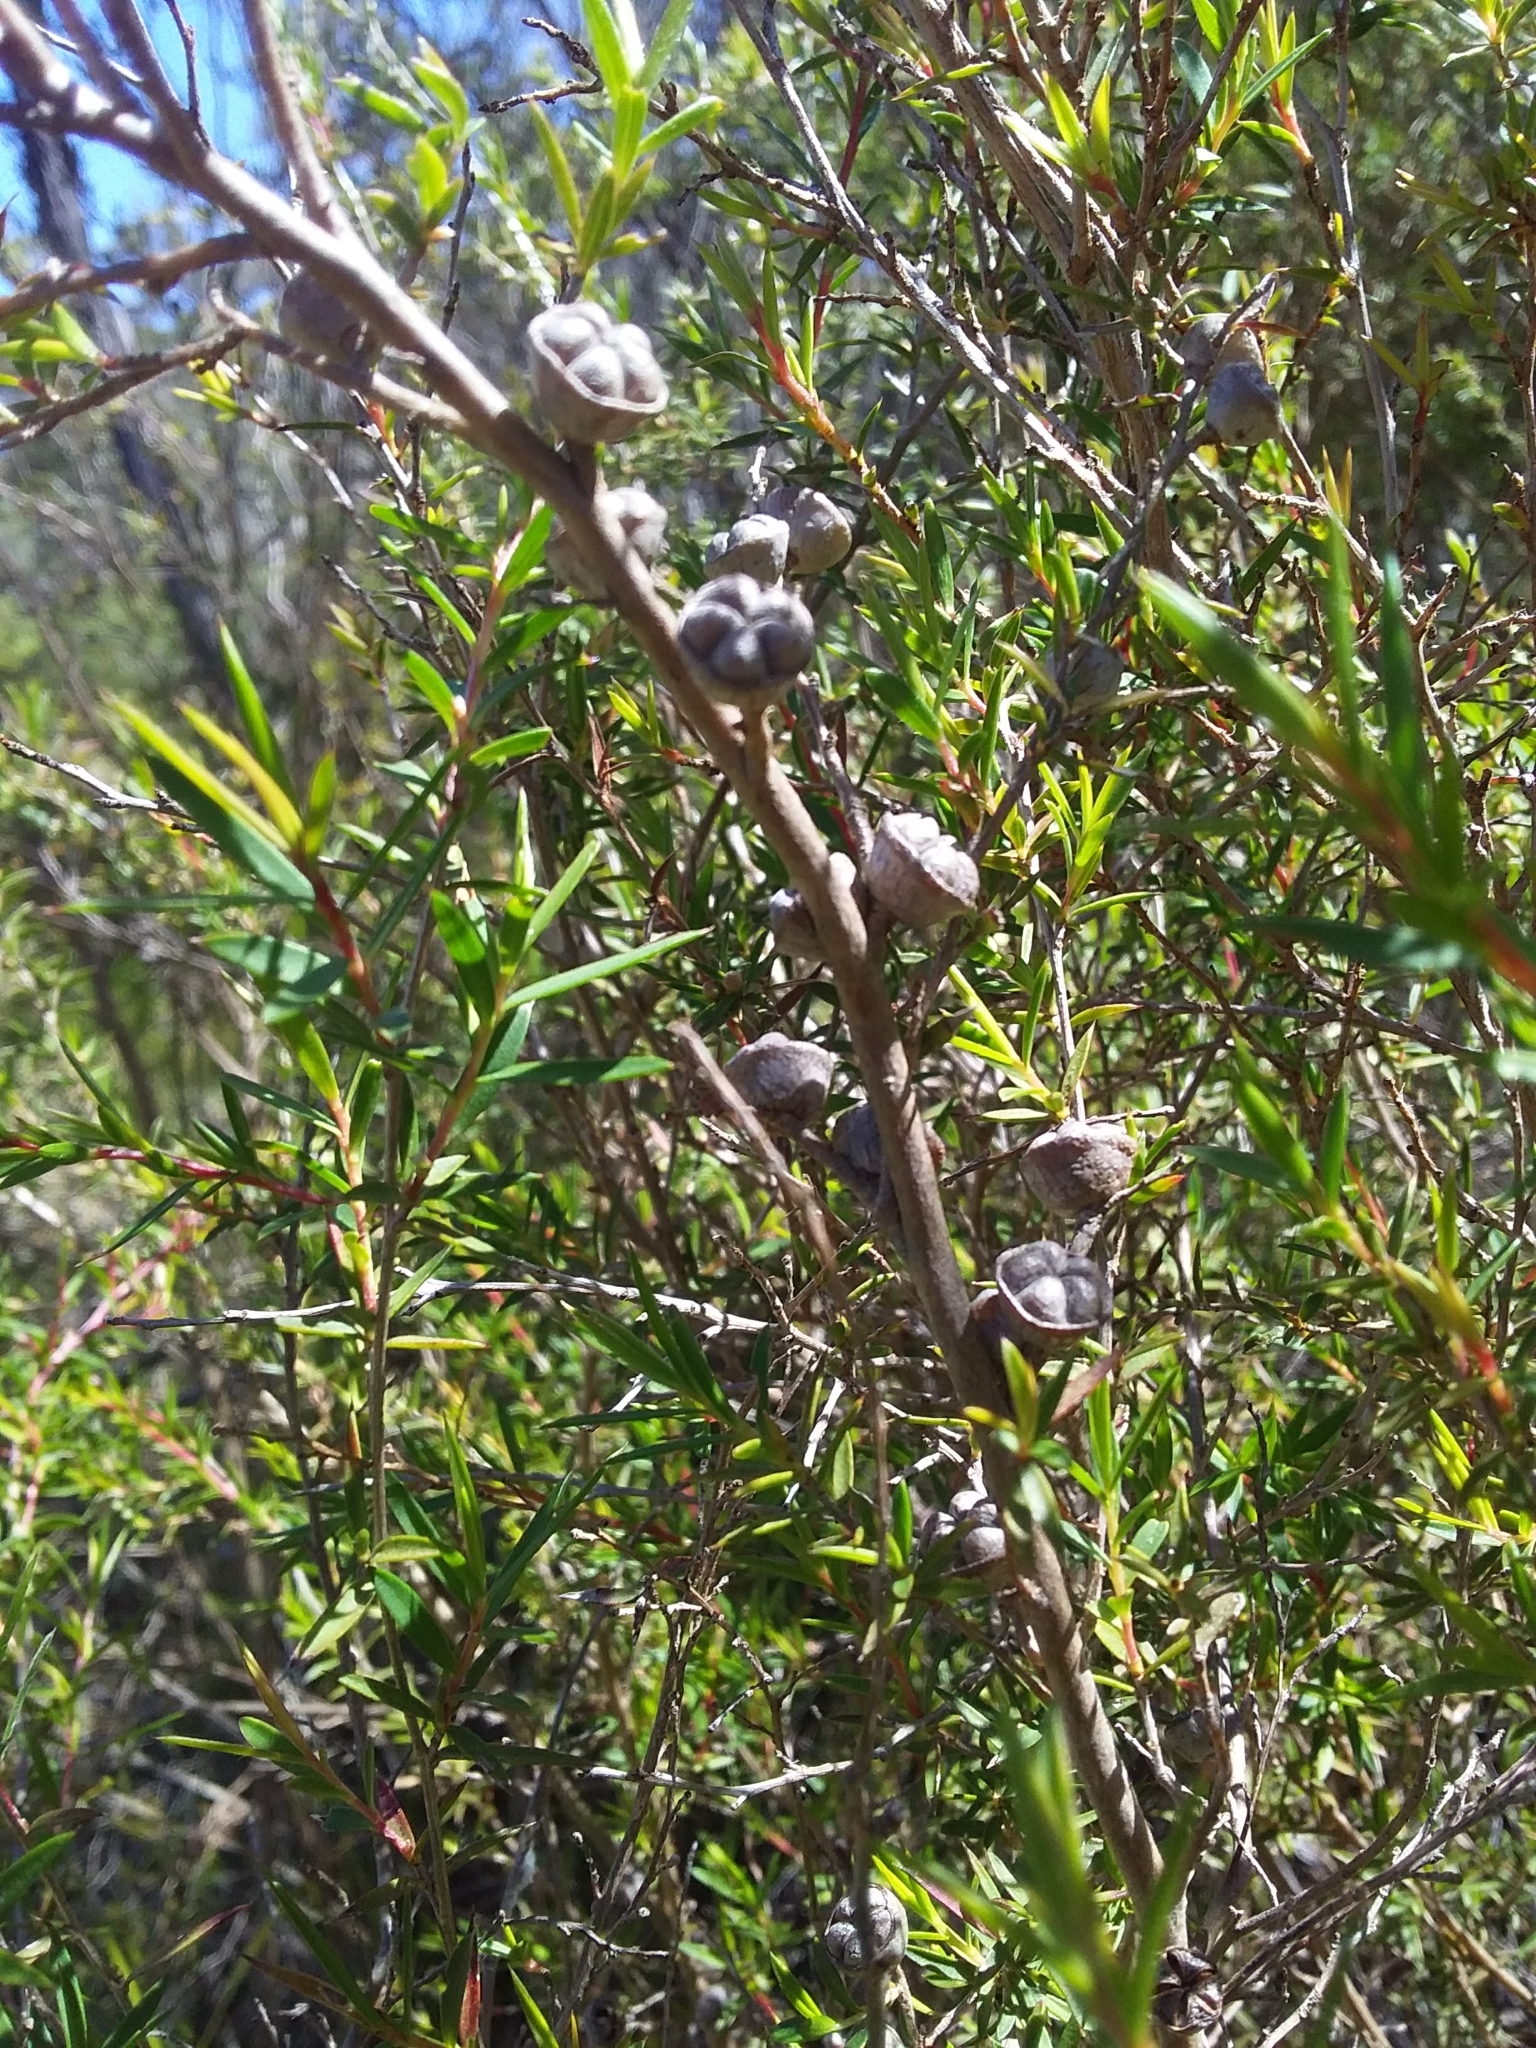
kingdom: Plantae
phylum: Tracheophyta
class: Magnoliopsida
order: Myrtales
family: Myrtaceae
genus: Leptospermum
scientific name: Leptospermum continentale
